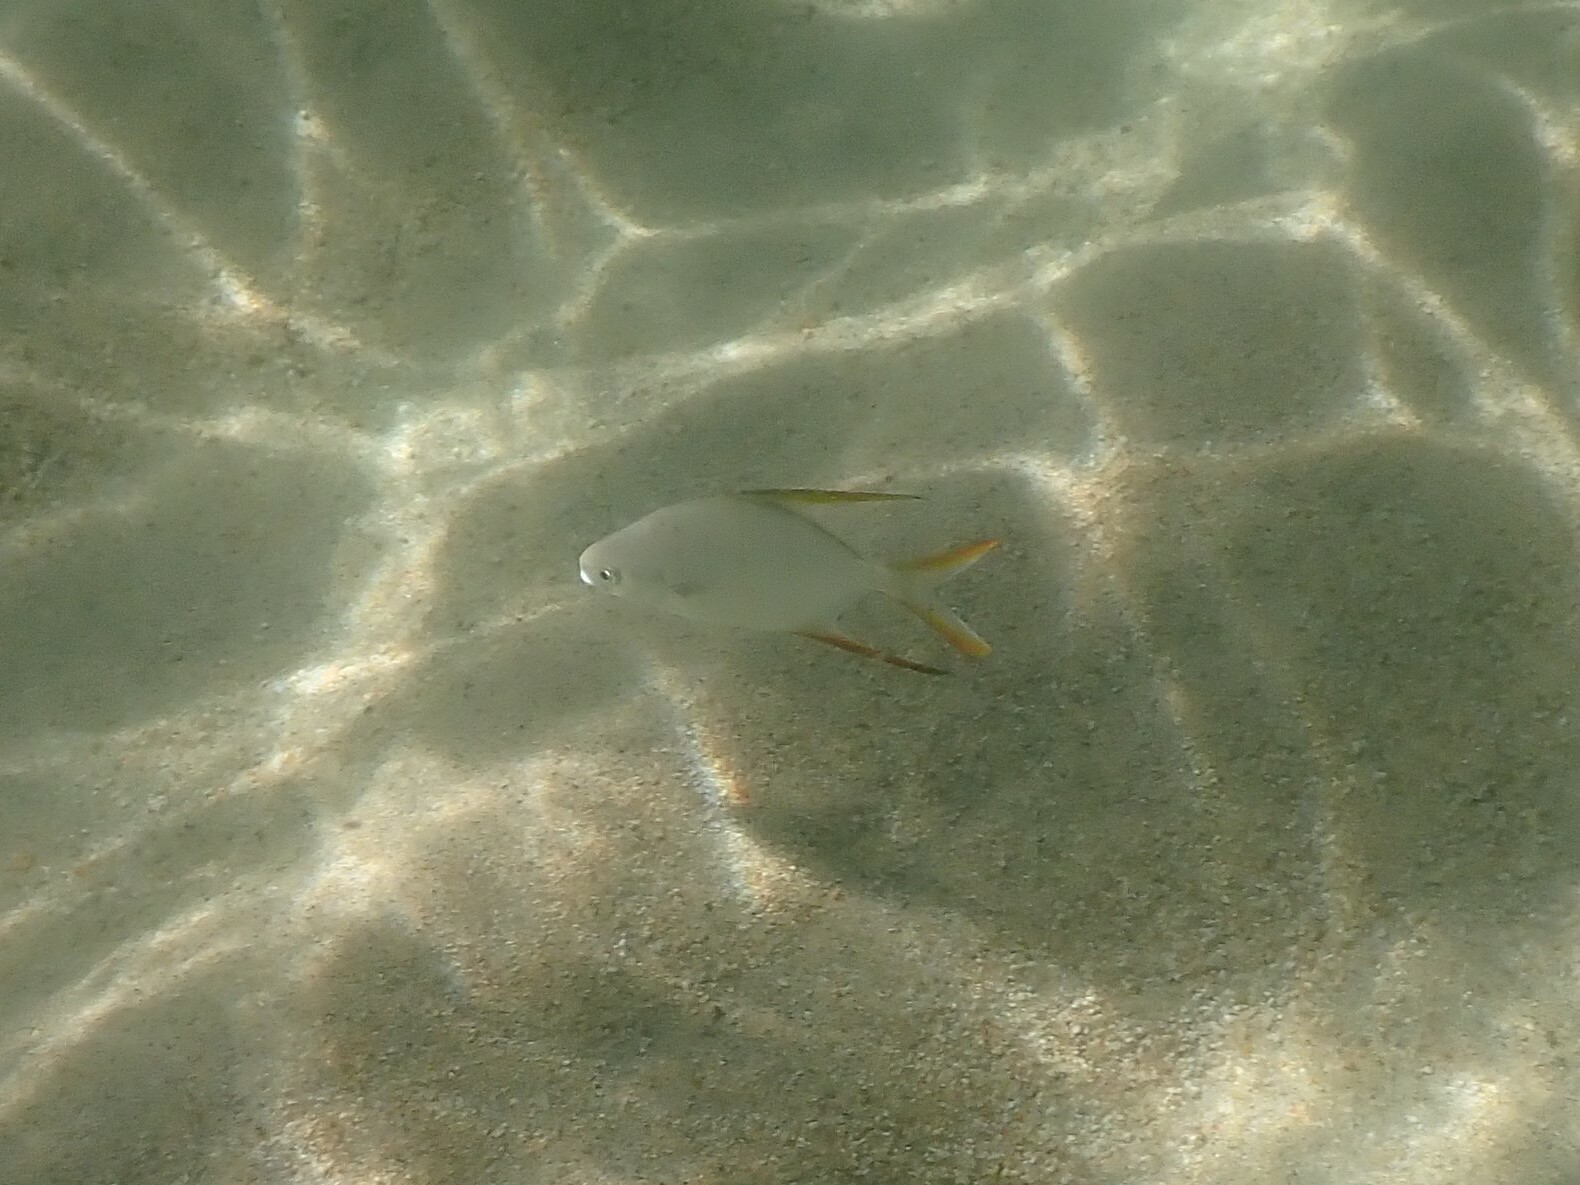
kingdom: Animalia
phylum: Chordata
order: Perciformes
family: Carangidae
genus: Trachinotus
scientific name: Trachinotus rhodopus
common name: Gafftopsail pompano
